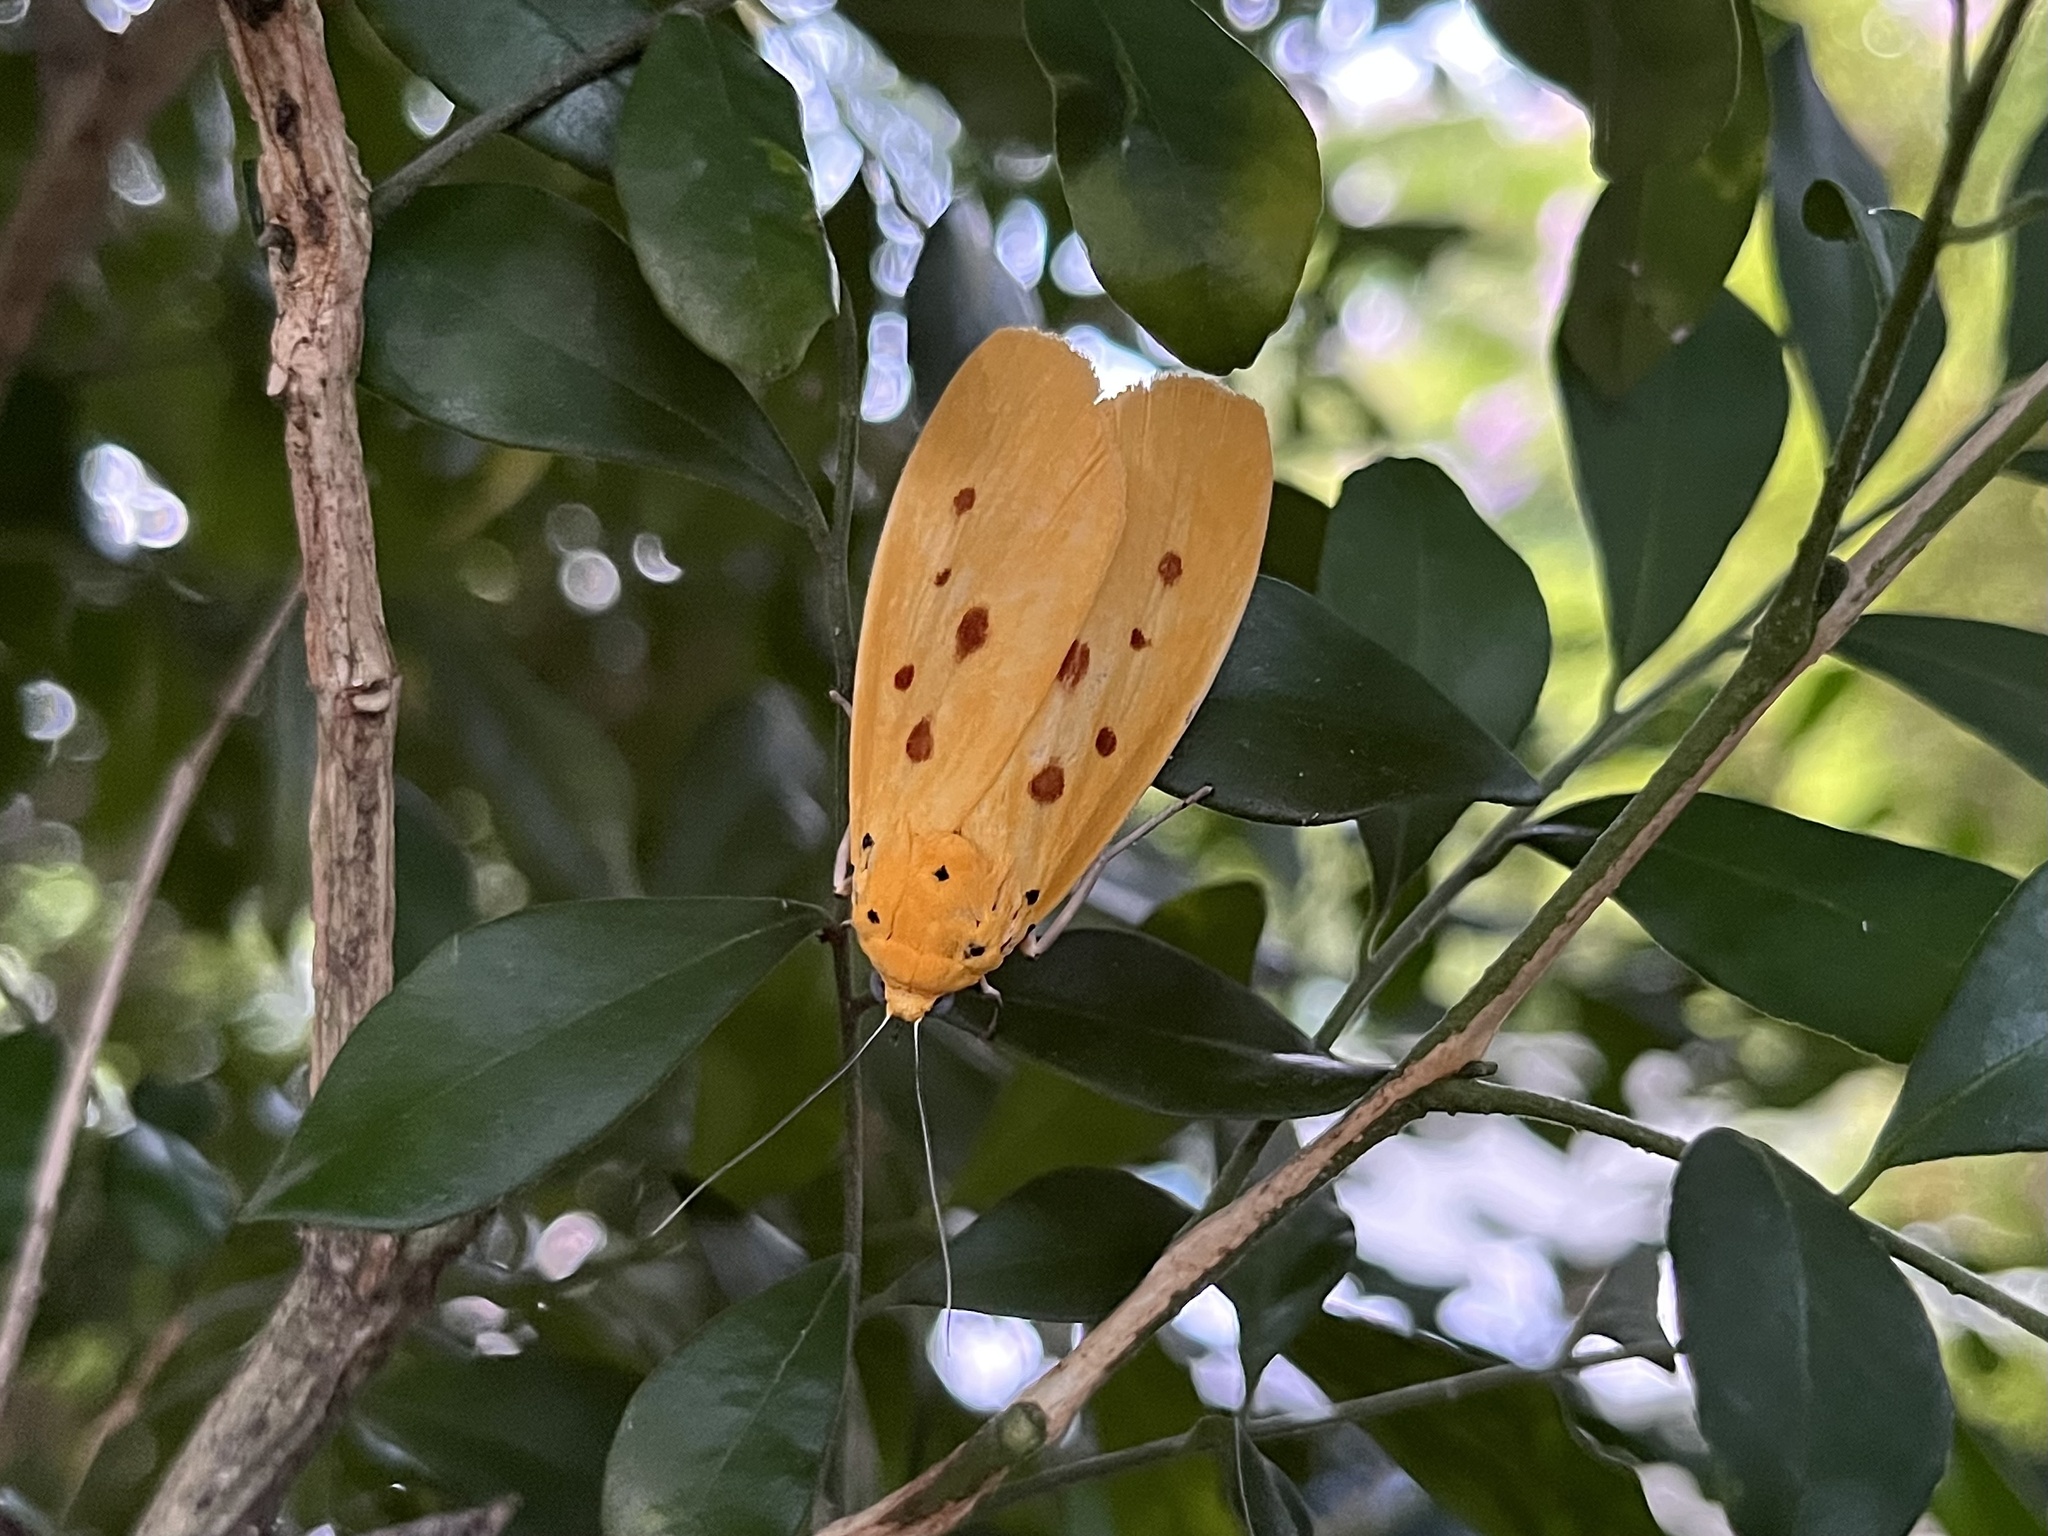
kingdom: Animalia
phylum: Arthropoda
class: Insecta
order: Lepidoptera
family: Noctuidae
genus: Agape
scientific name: Agape chloropyga
